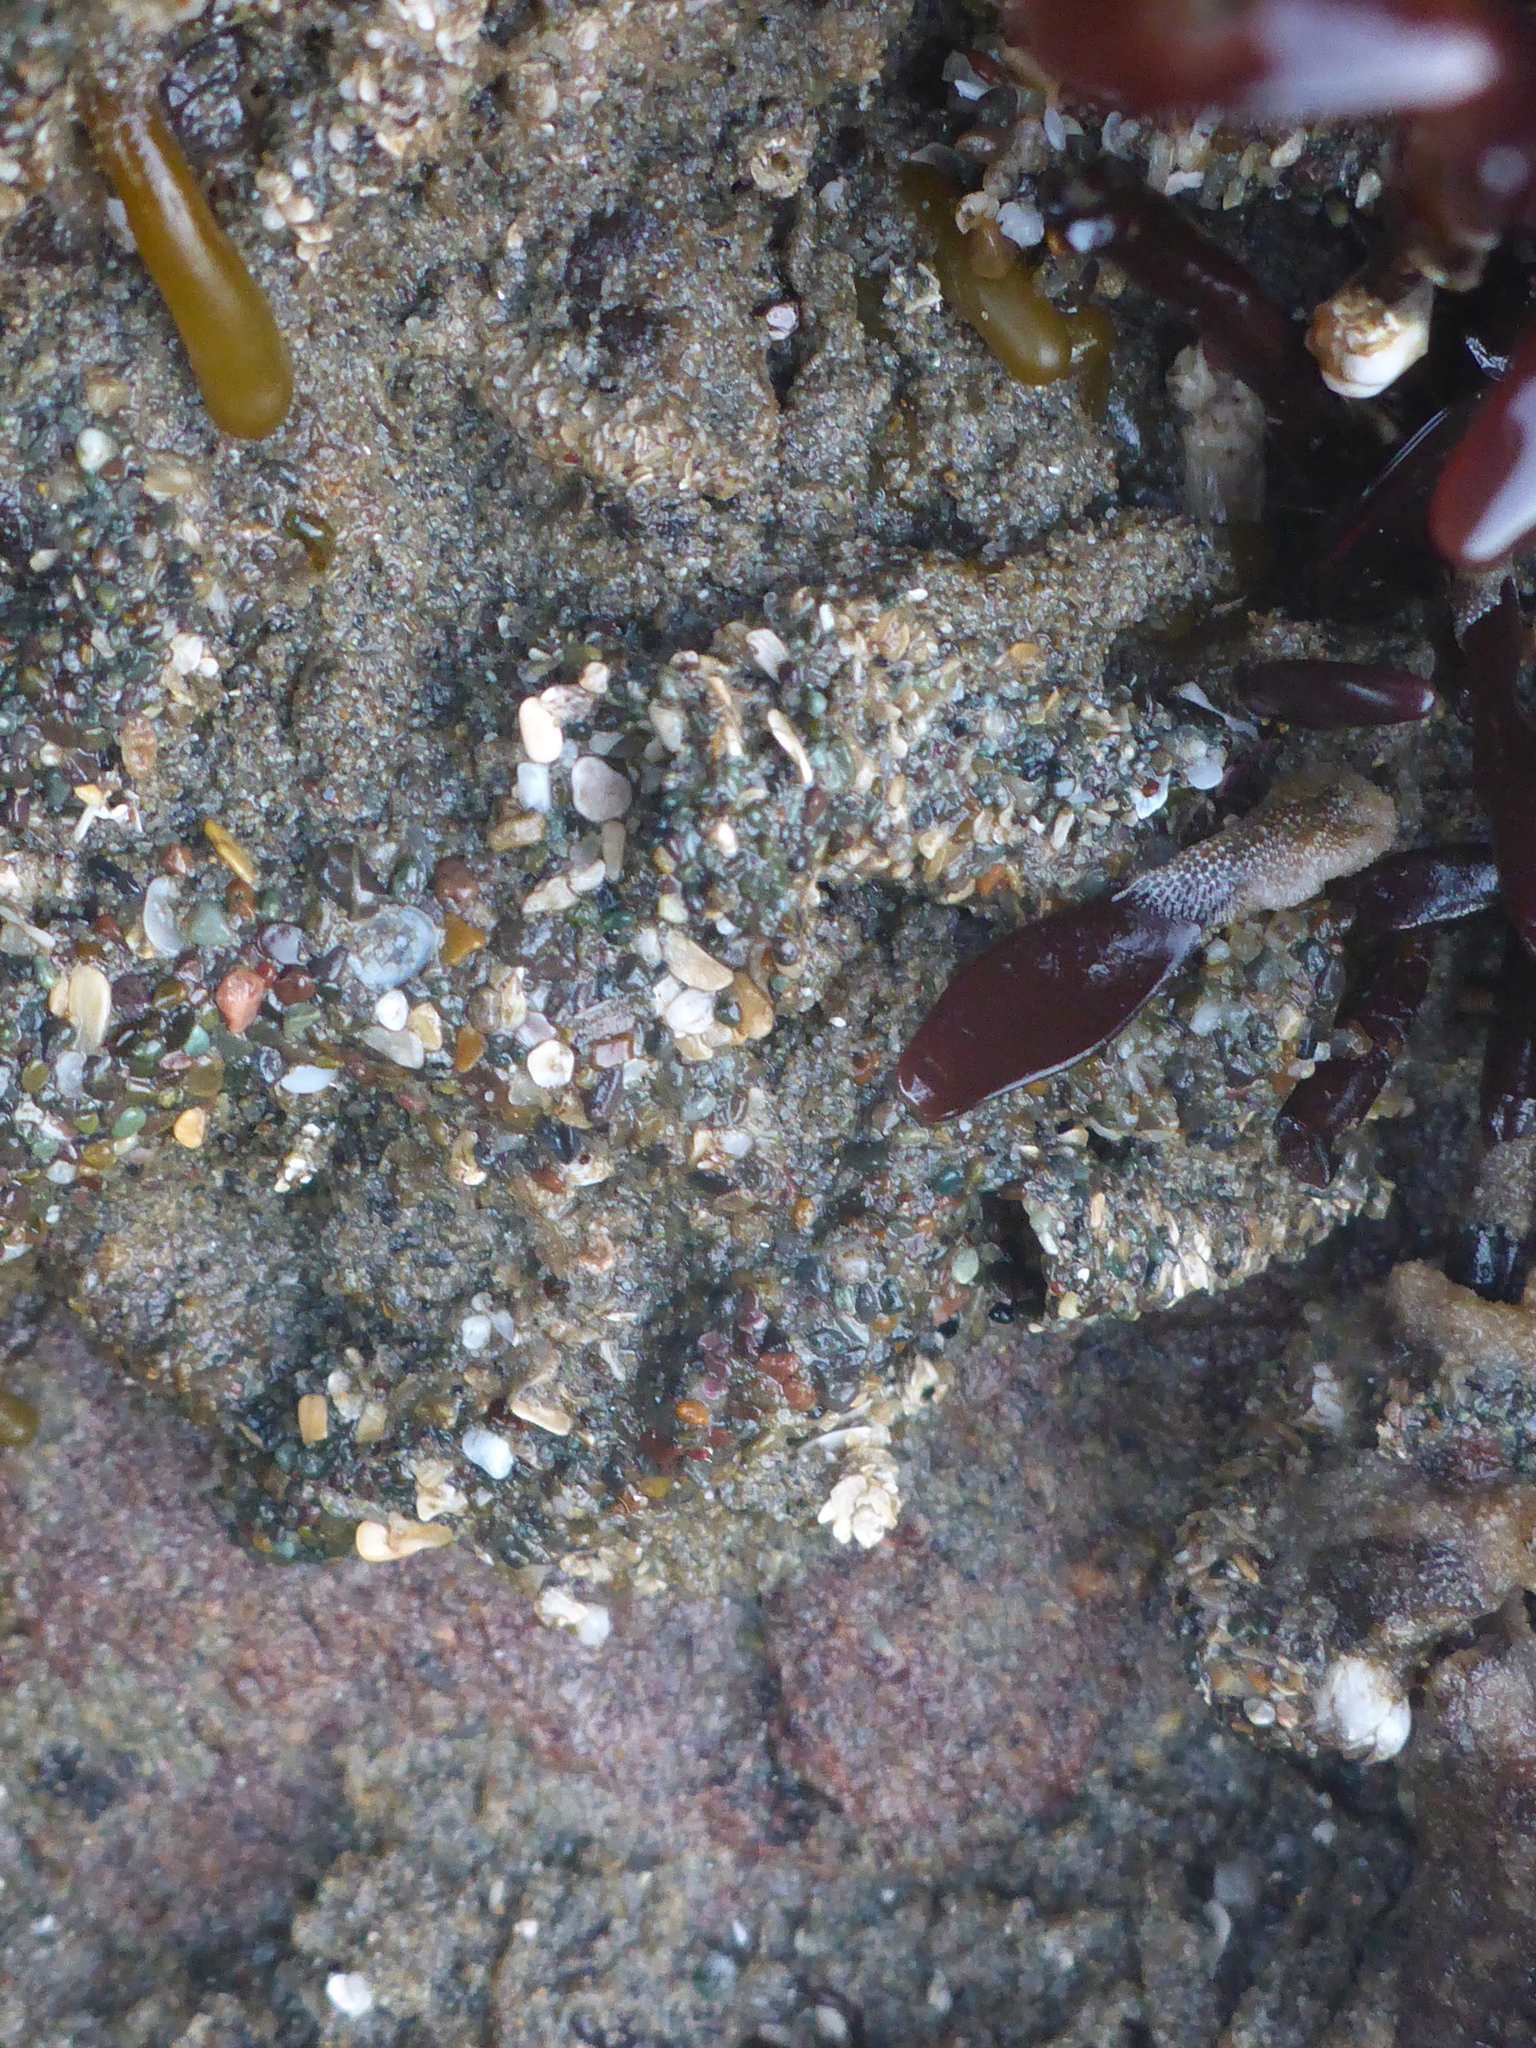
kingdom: Animalia
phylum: Annelida
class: Polychaeta
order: Sabellida
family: Sabellariidae
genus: Phragmatopoma
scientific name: Phragmatopoma californica
